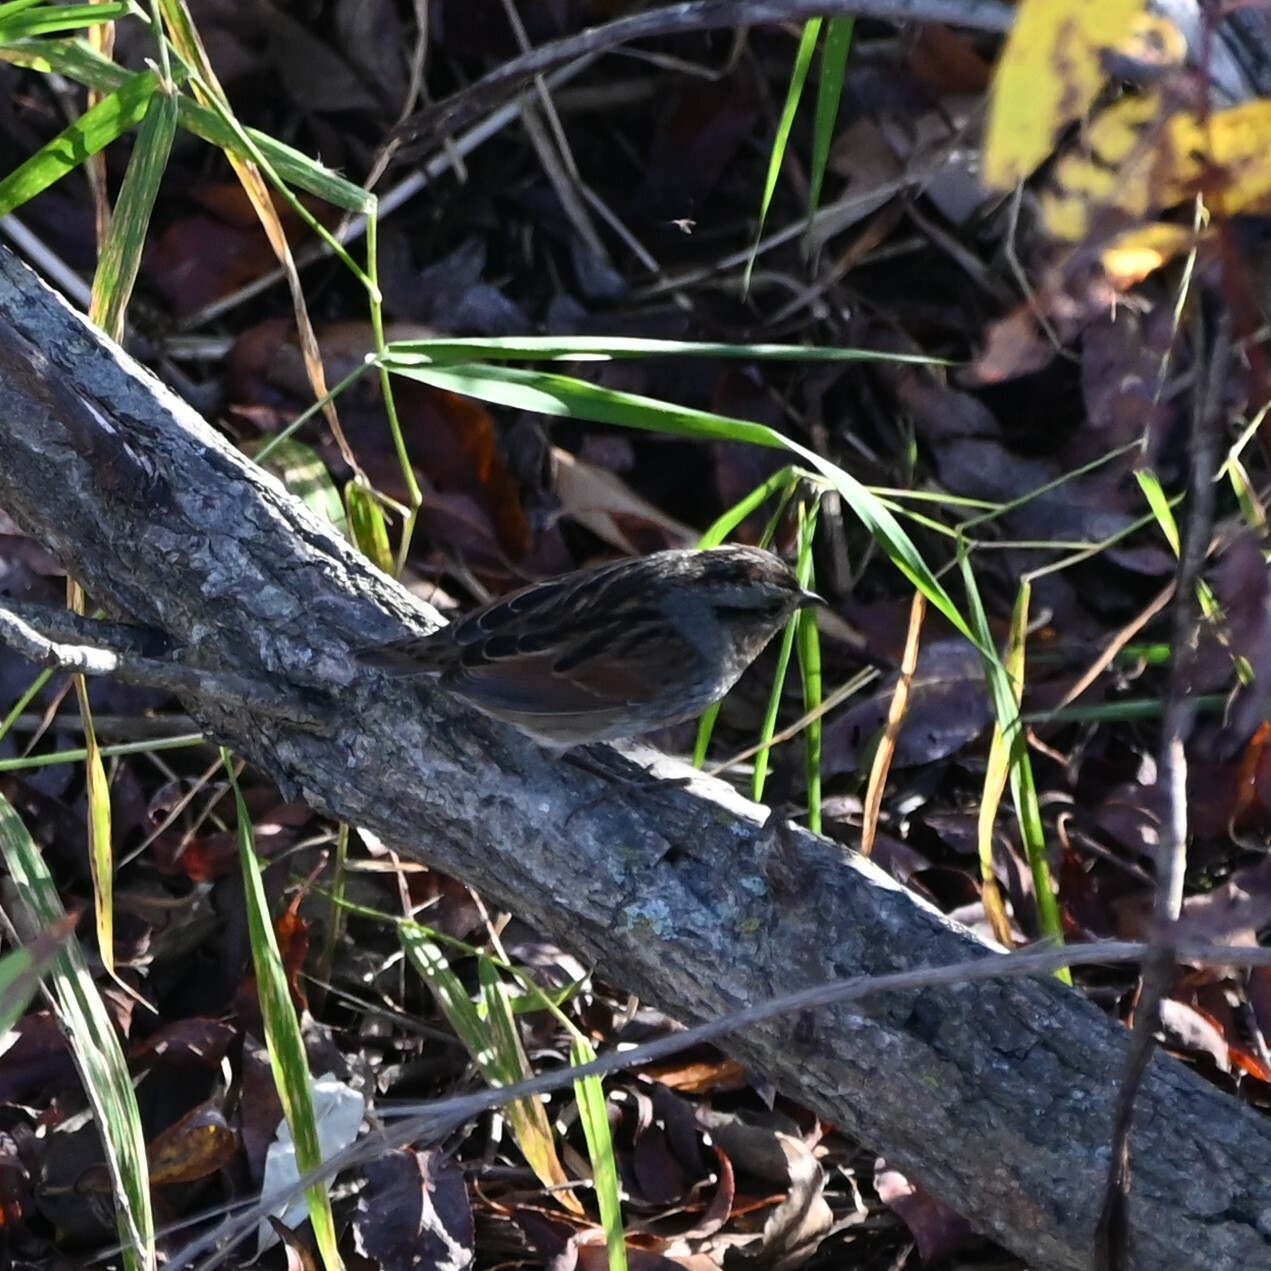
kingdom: Animalia
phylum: Chordata
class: Aves
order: Passeriformes
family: Passerellidae
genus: Melospiza
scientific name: Melospiza georgiana
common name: Swamp sparrow
